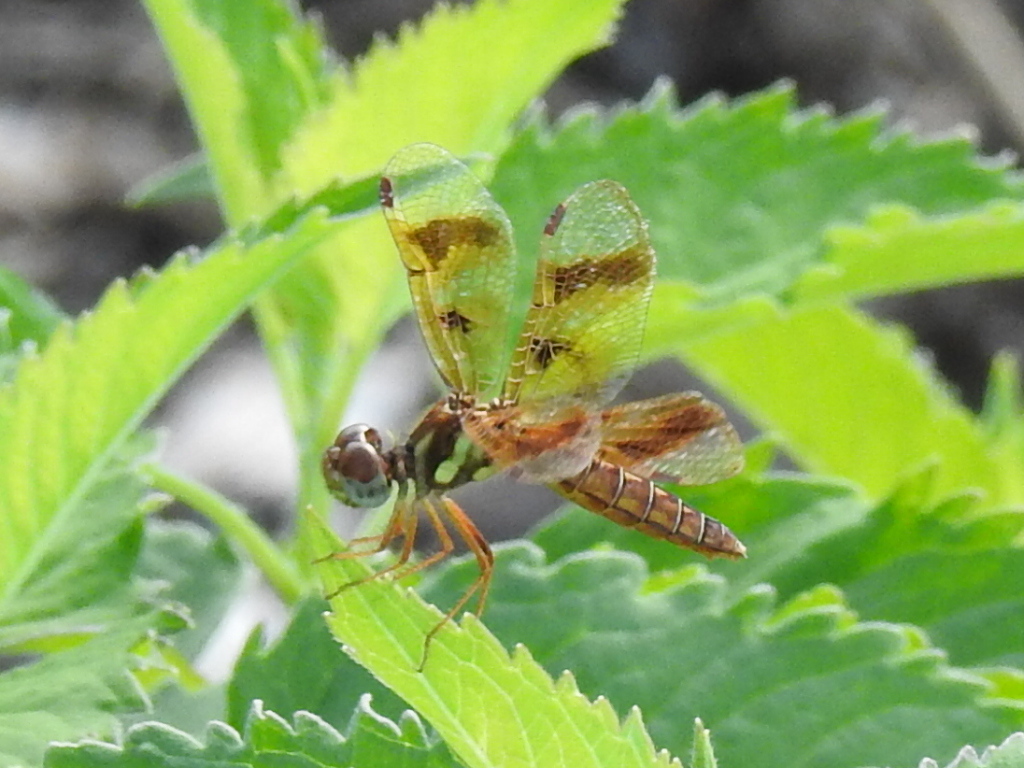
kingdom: Animalia
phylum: Arthropoda
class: Insecta
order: Odonata
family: Libellulidae
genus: Perithemis
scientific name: Perithemis tenera
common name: Eastern amberwing
